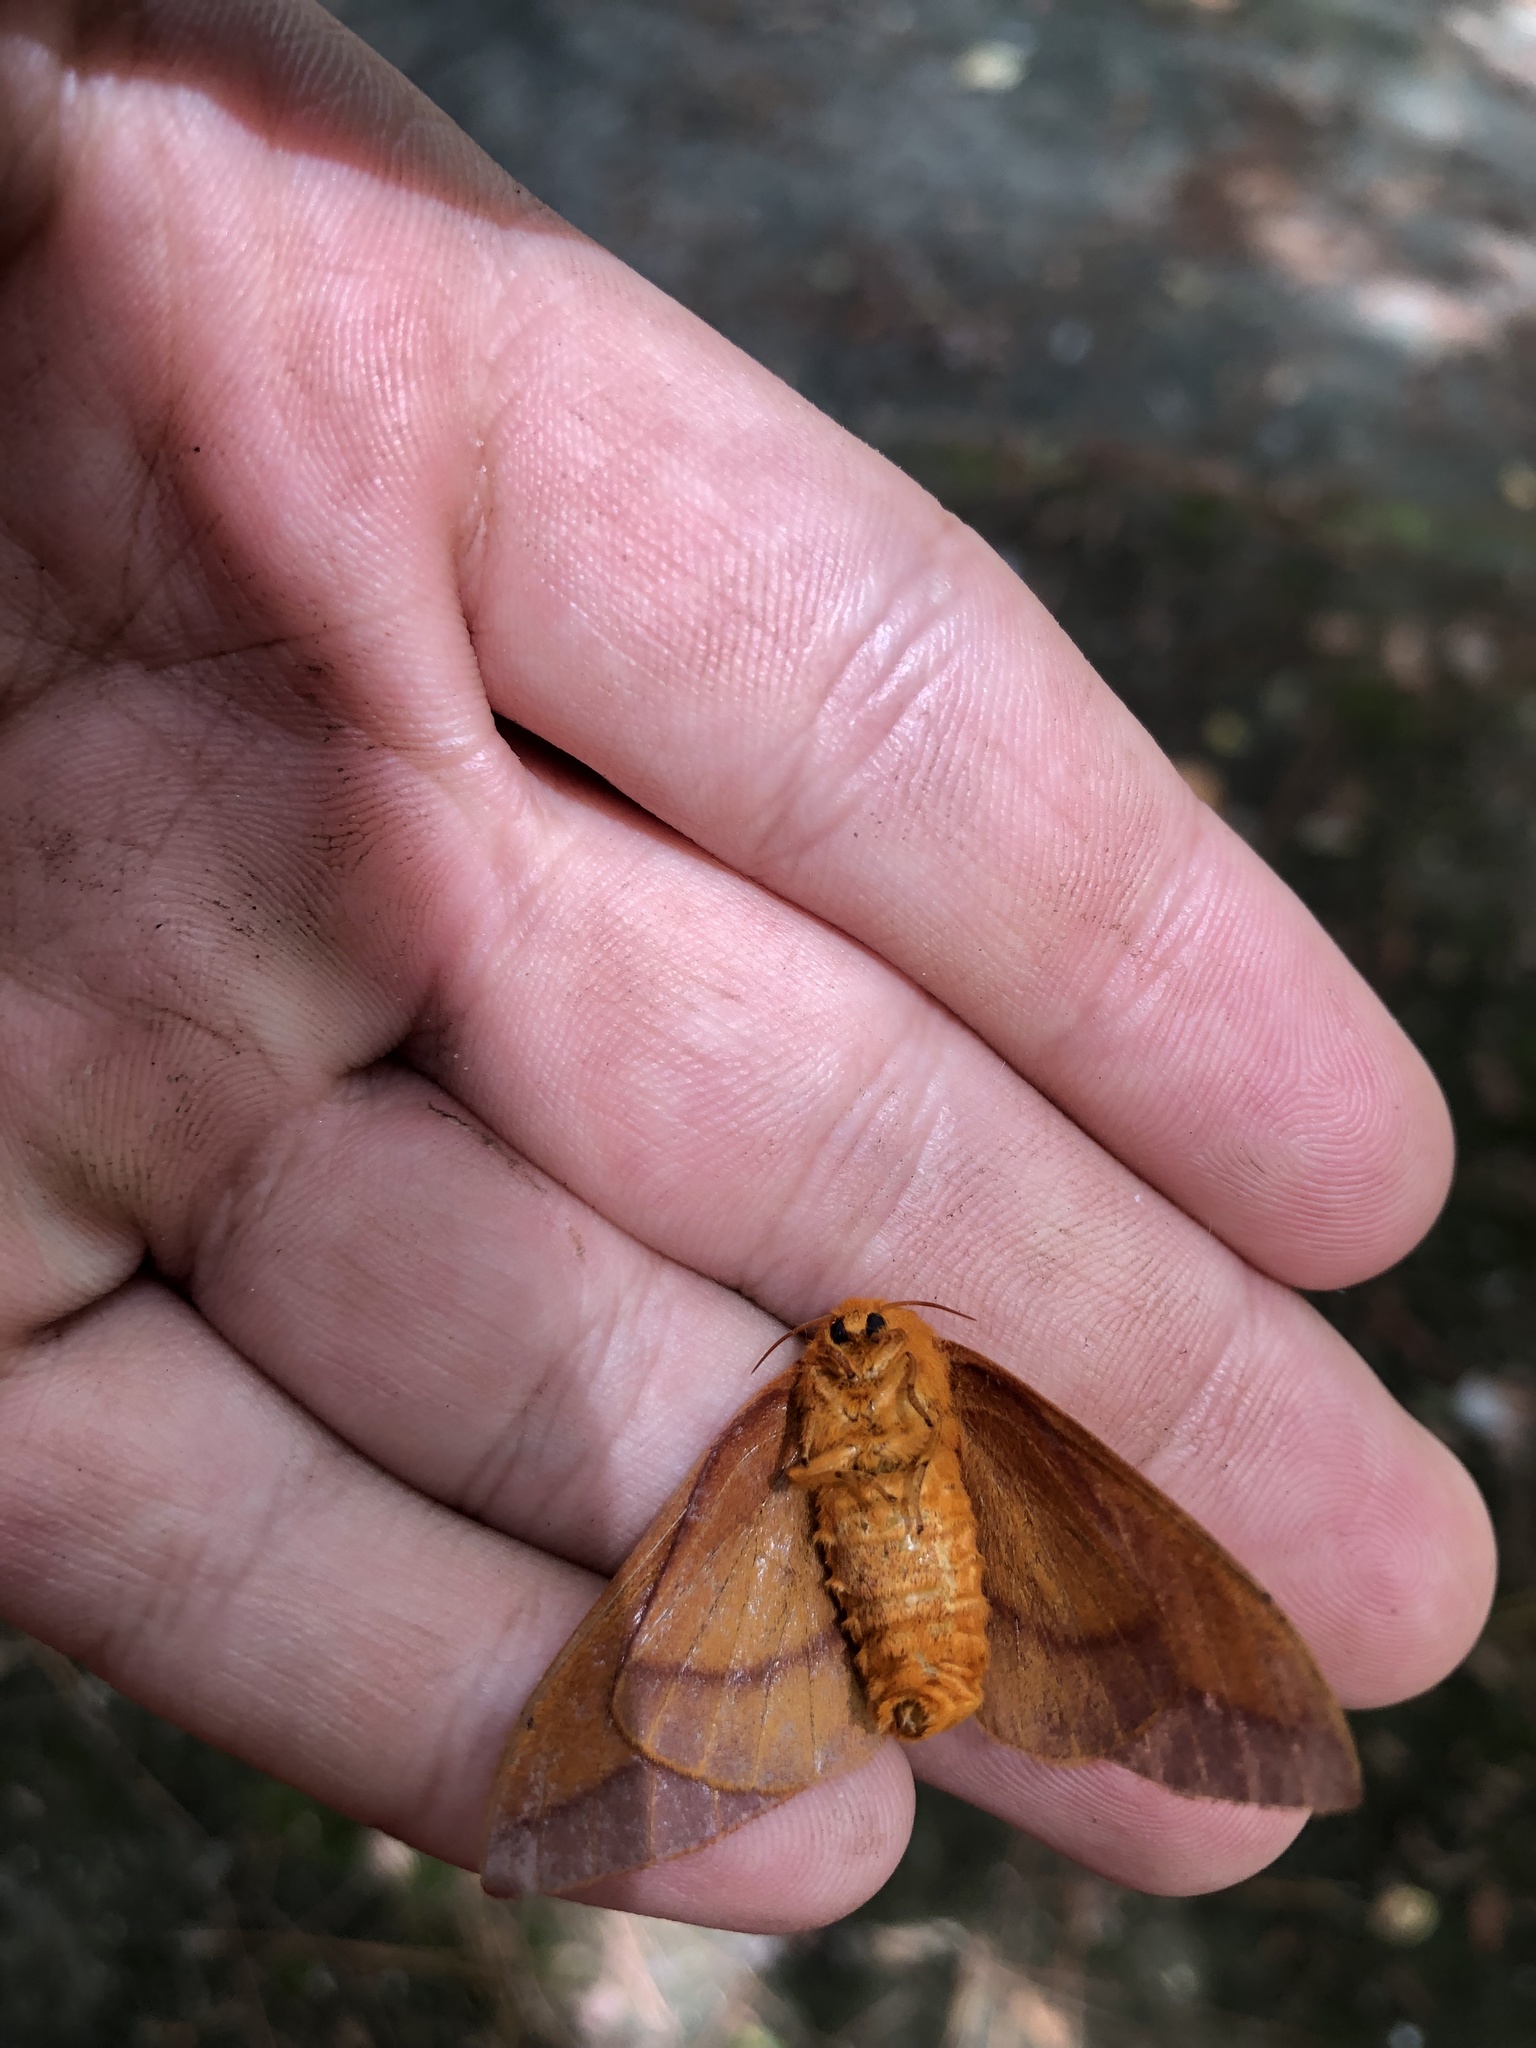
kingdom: Animalia
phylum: Arthropoda
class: Insecta
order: Lepidoptera
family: Saturniidae
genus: Anisota
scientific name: Anisota virginiensis
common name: Pink striped oakworm moth
